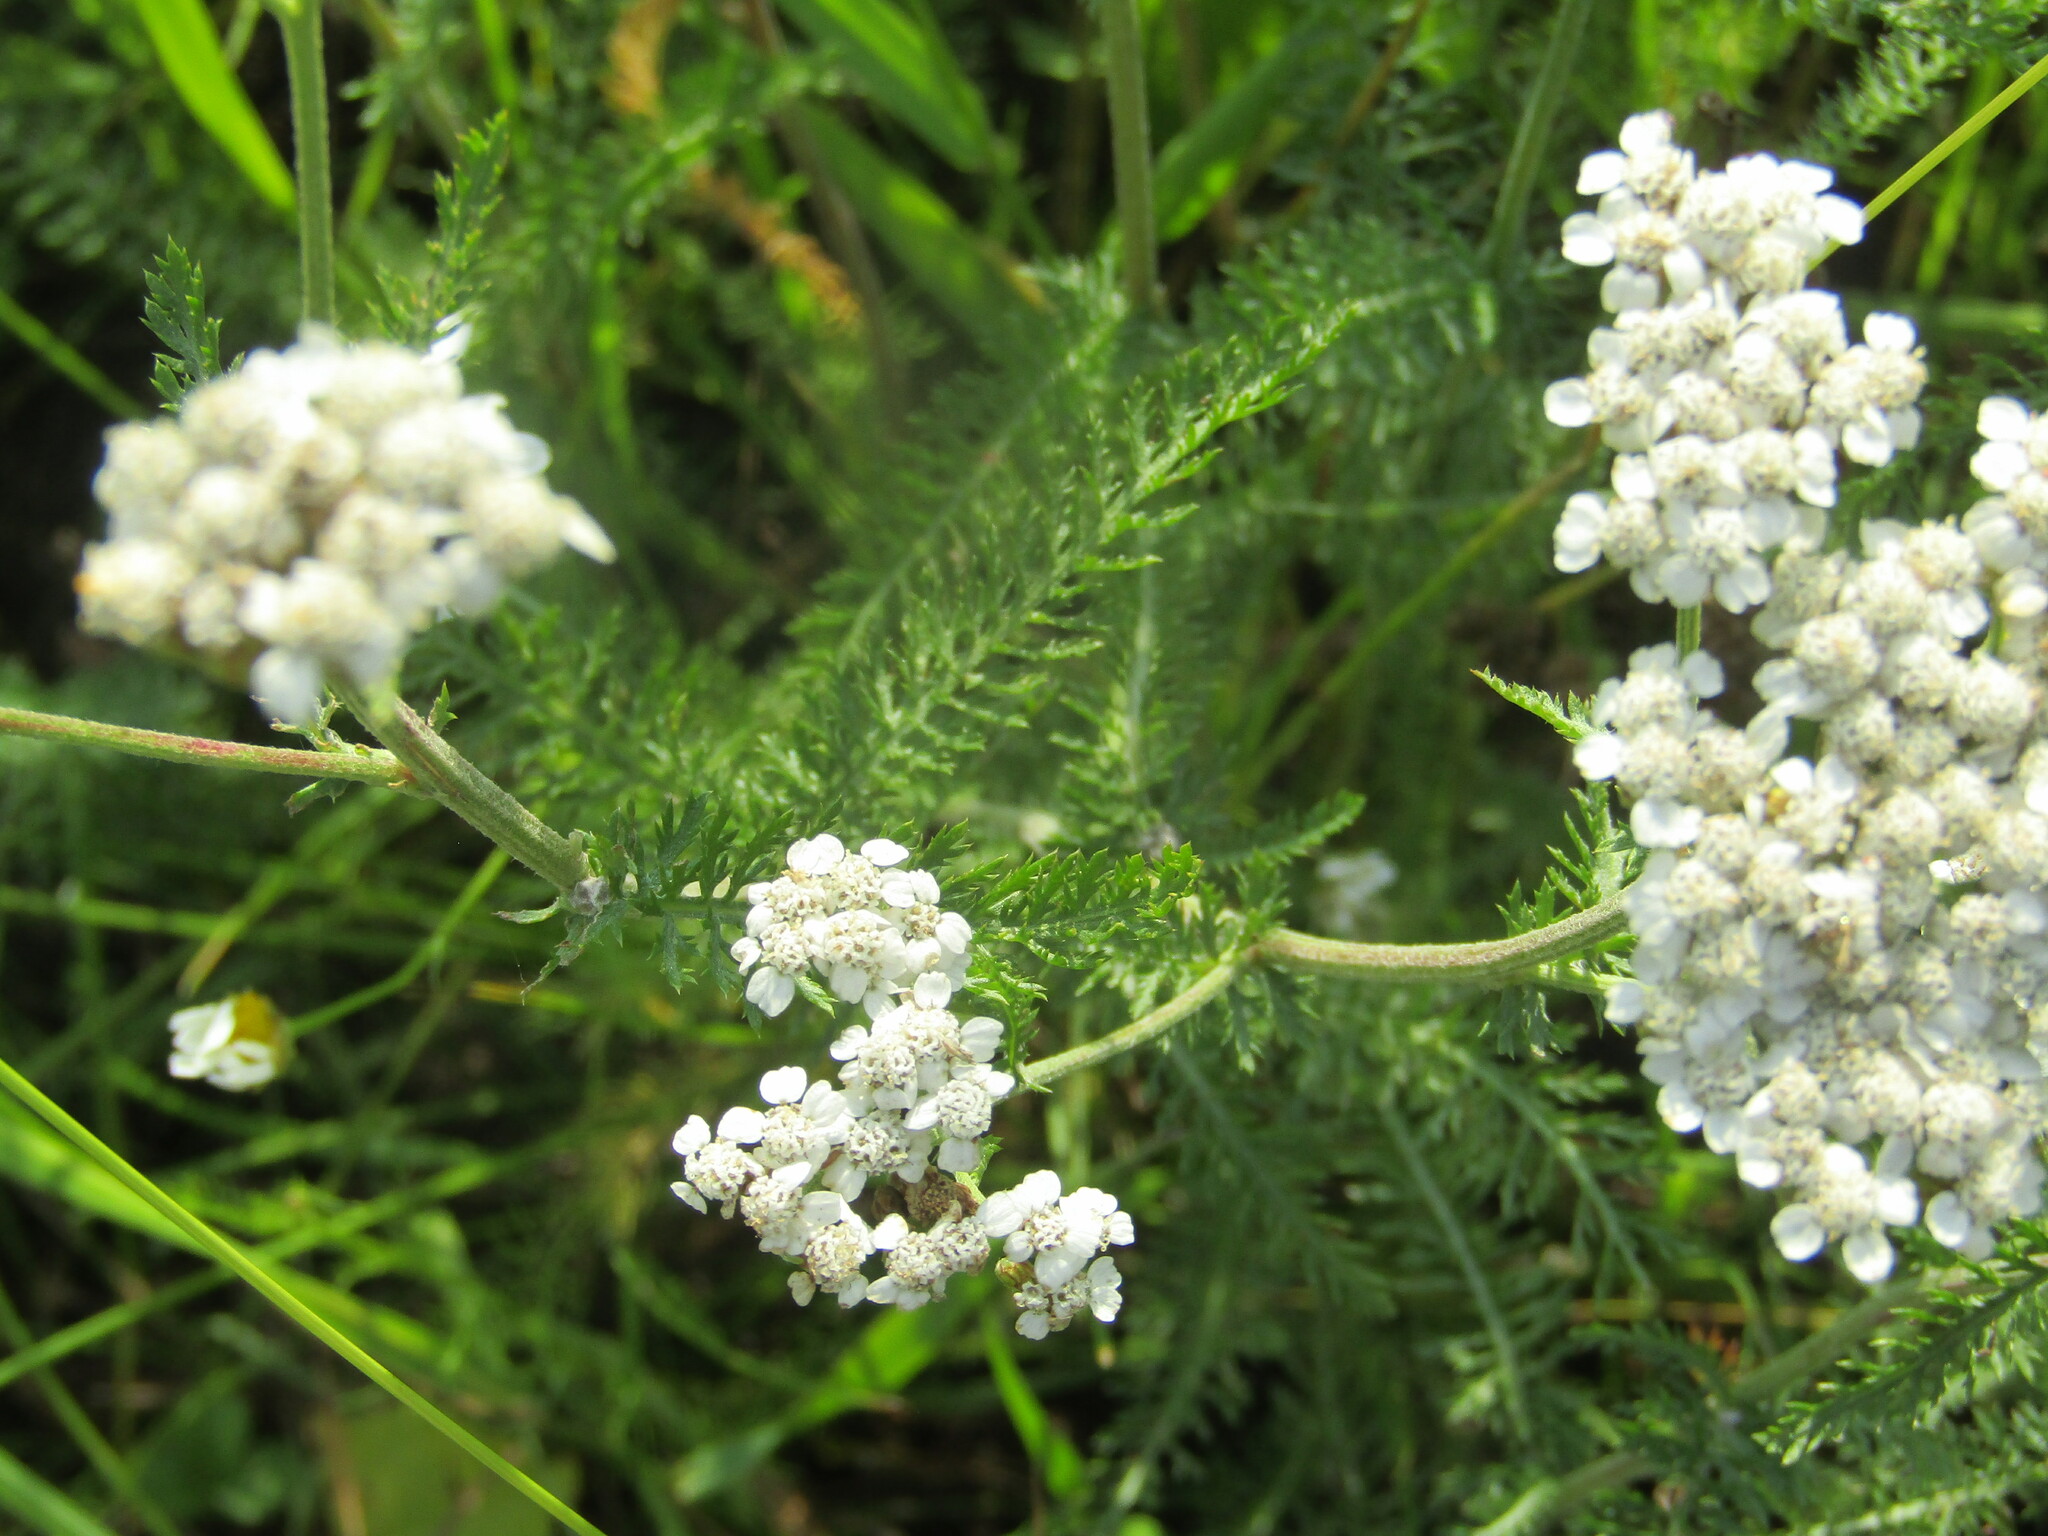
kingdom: Plantae
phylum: Tracheophyta
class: Magnoliopsida
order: Asterales
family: Asteraceae
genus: Achillea
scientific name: Achillea millefolium
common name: Yarrow
